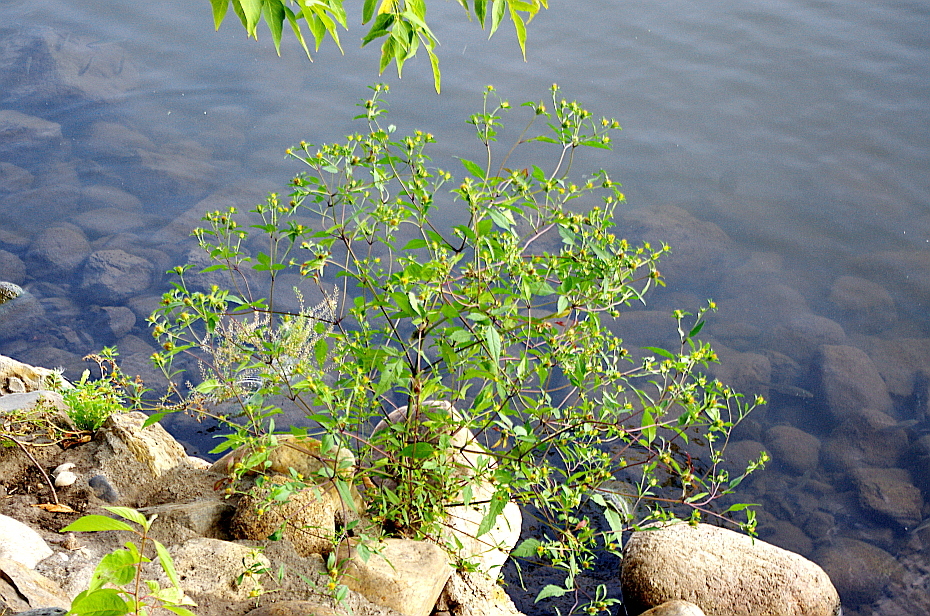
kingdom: Plantae
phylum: Tracheophyta
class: Magnoliopsida
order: Asterales
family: Asteraceae
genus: Bidens
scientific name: Bidens frondosa
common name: Beggarticks
